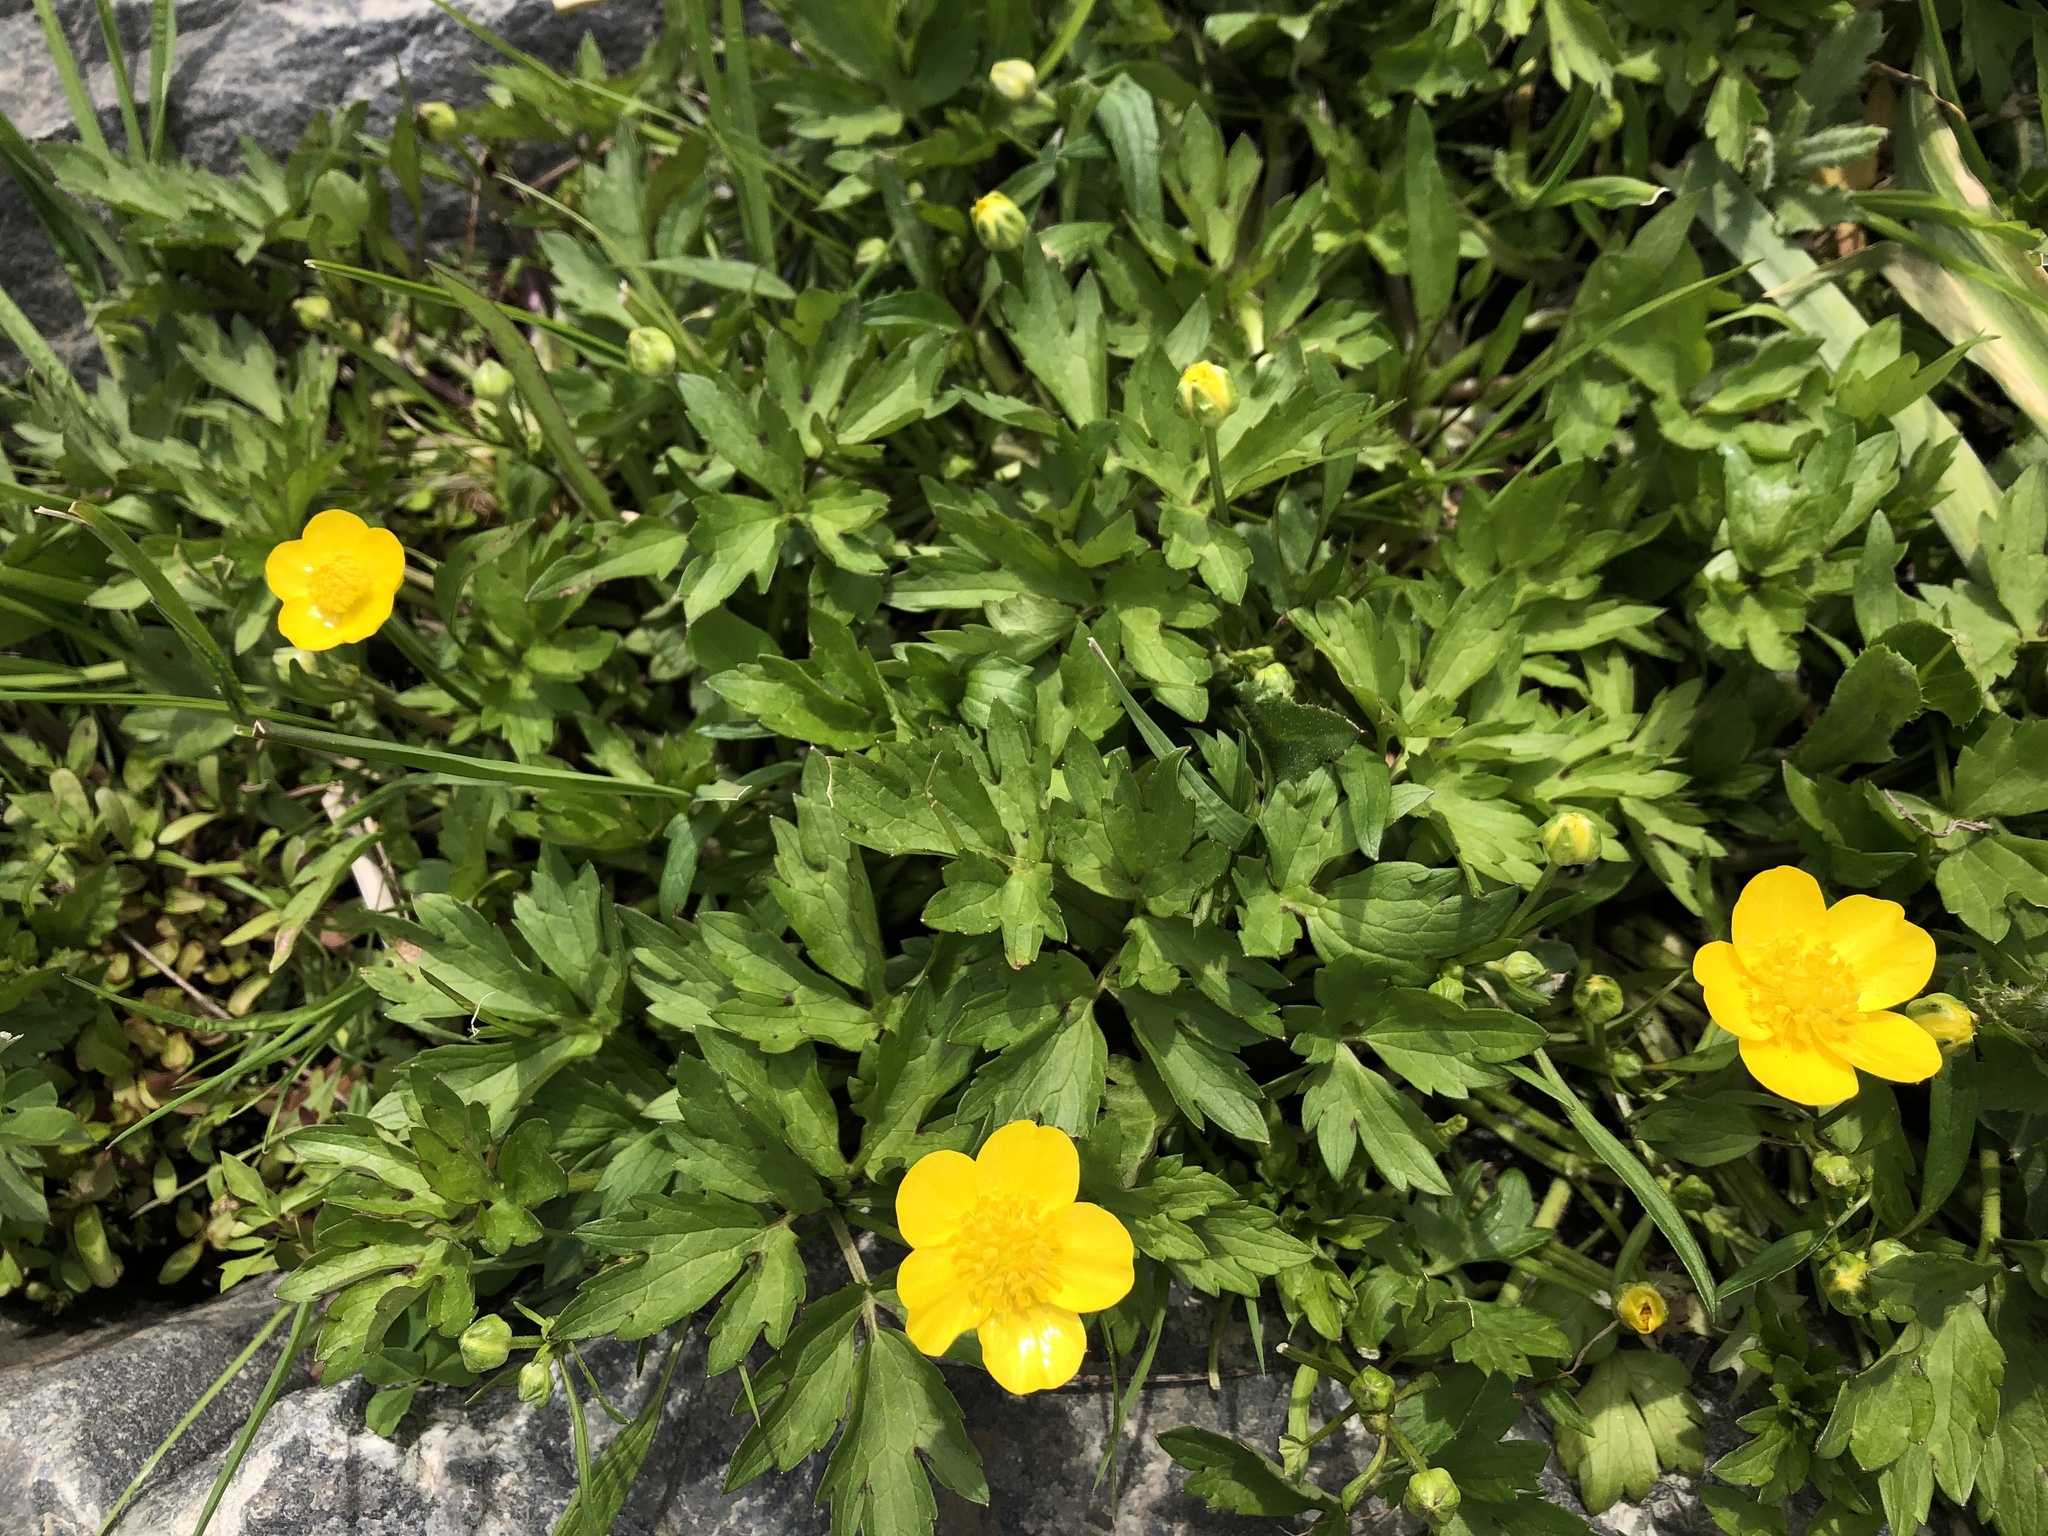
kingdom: Plantae
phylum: Tracheophyta
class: Magnoliopsida
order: Ranunculales
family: Ranunculaceae
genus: Ranunculus
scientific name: Ranunculus repens
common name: Creeping buttercup
